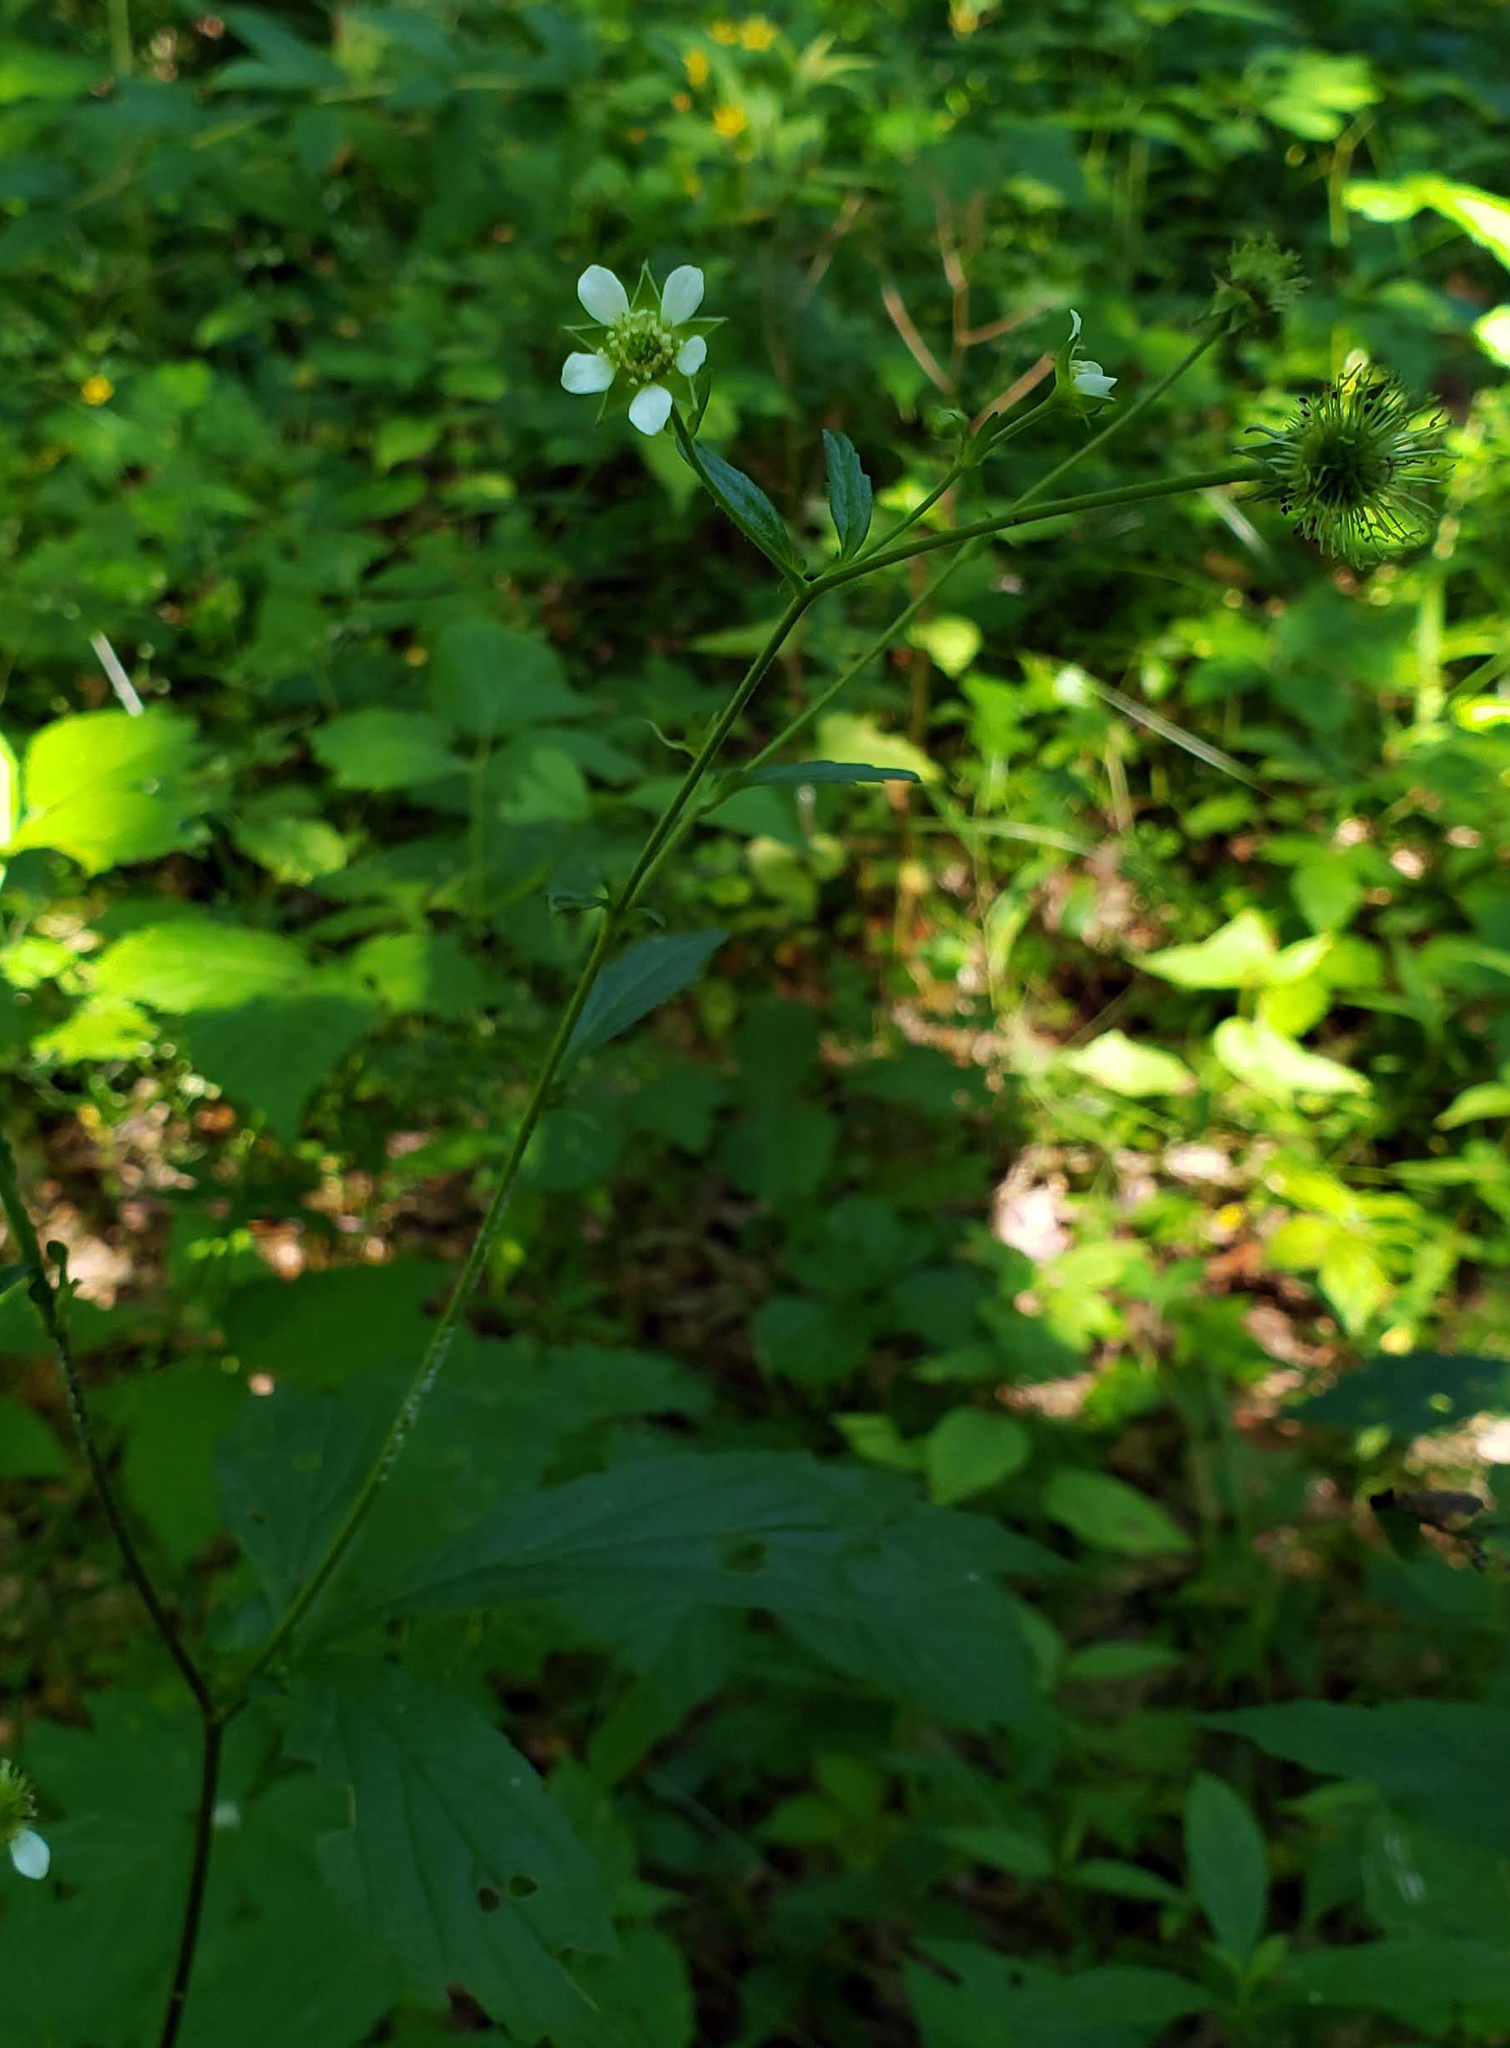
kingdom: Plantae
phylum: Tracheophyta
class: Magnoliopsida
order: Rosales
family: Rosaceae
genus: Geum
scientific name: Geum canadense
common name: White avens
